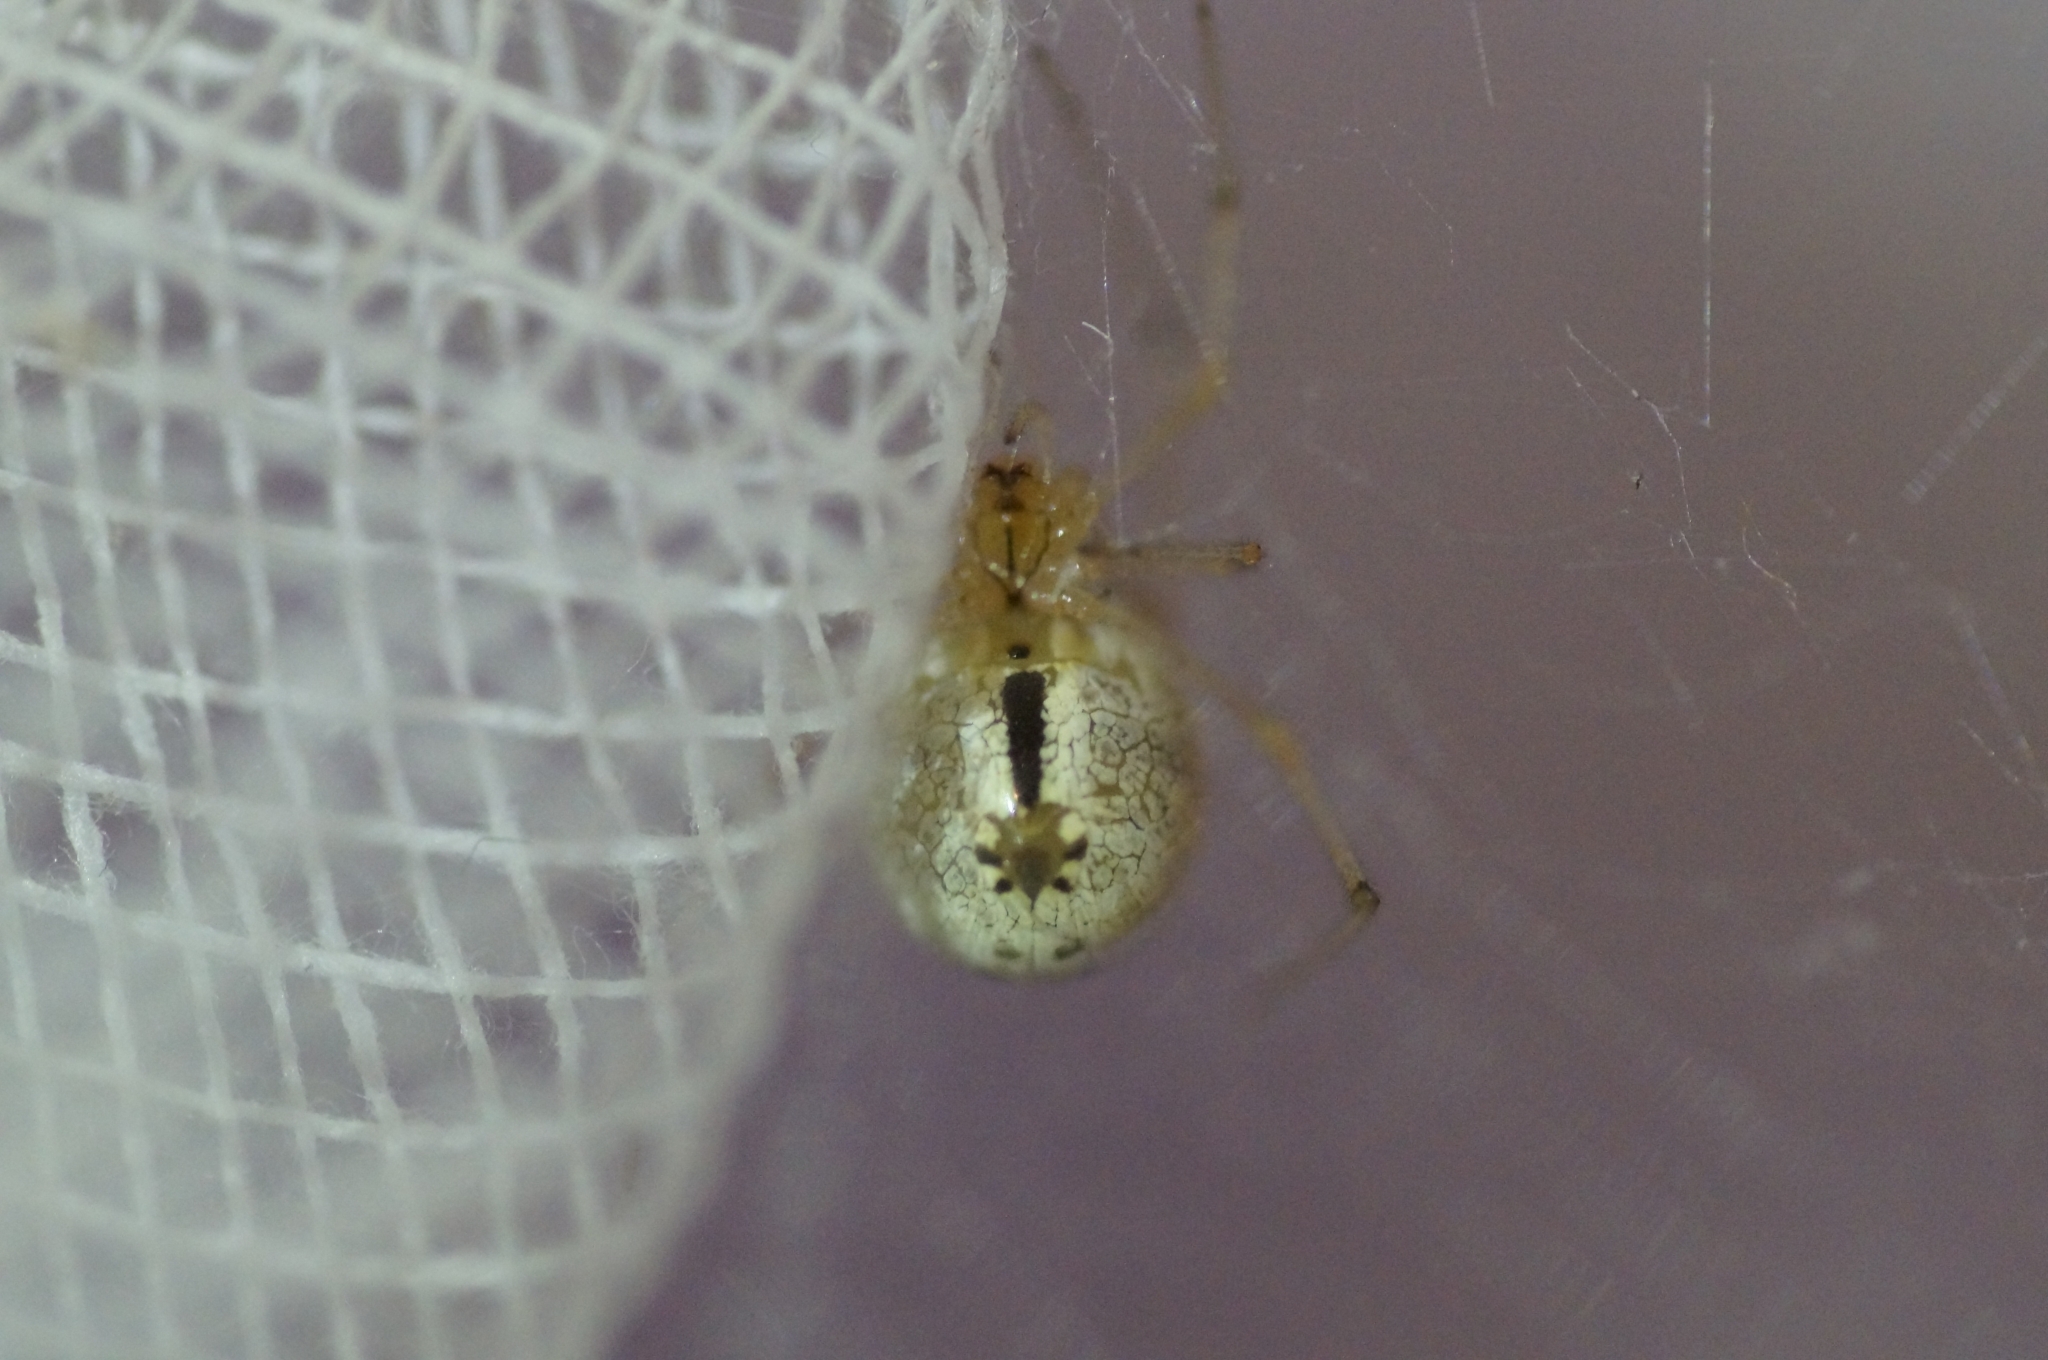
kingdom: Animalia
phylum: Arthropoda
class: Arachnida
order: Araneae
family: Theridiidae
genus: Enoplognatha
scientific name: Enoplognatha ovata
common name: Common candy-striped spider
